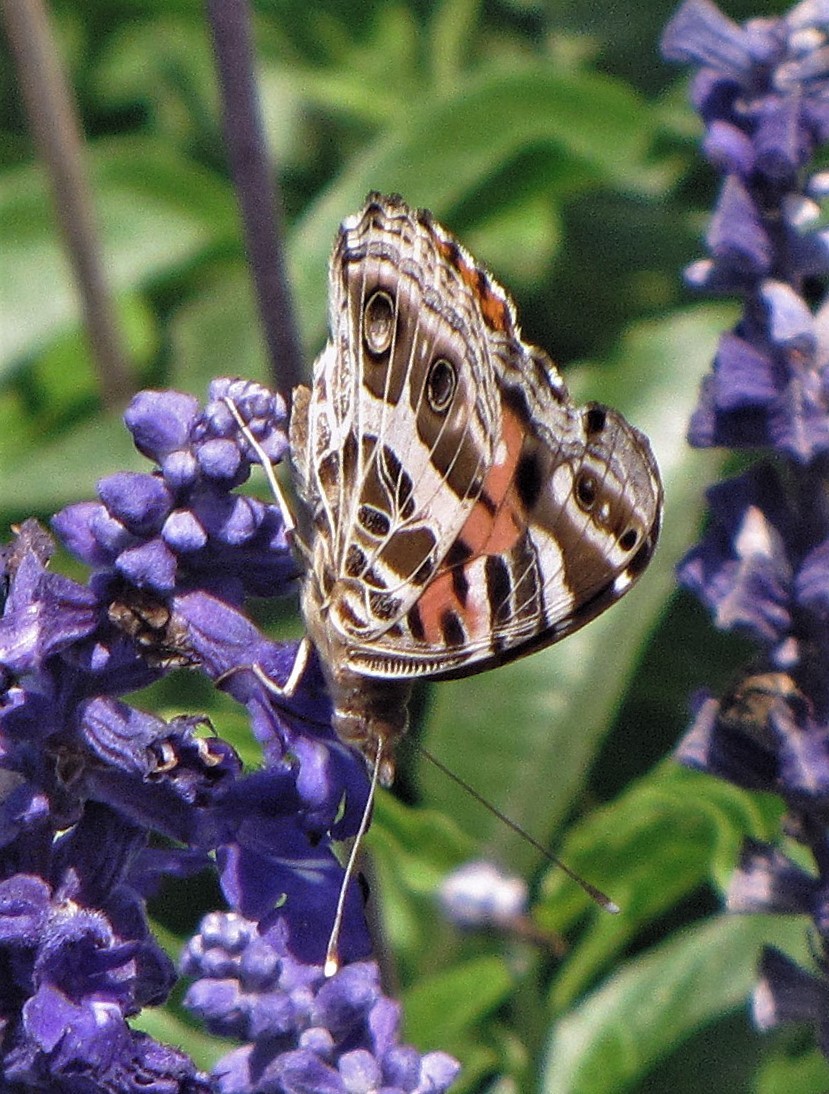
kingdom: Animalia
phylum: Arthropoda
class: Insecta
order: Lepidoptera
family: Nymphalidae
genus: Vanessa
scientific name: Vanessa braziliensis
